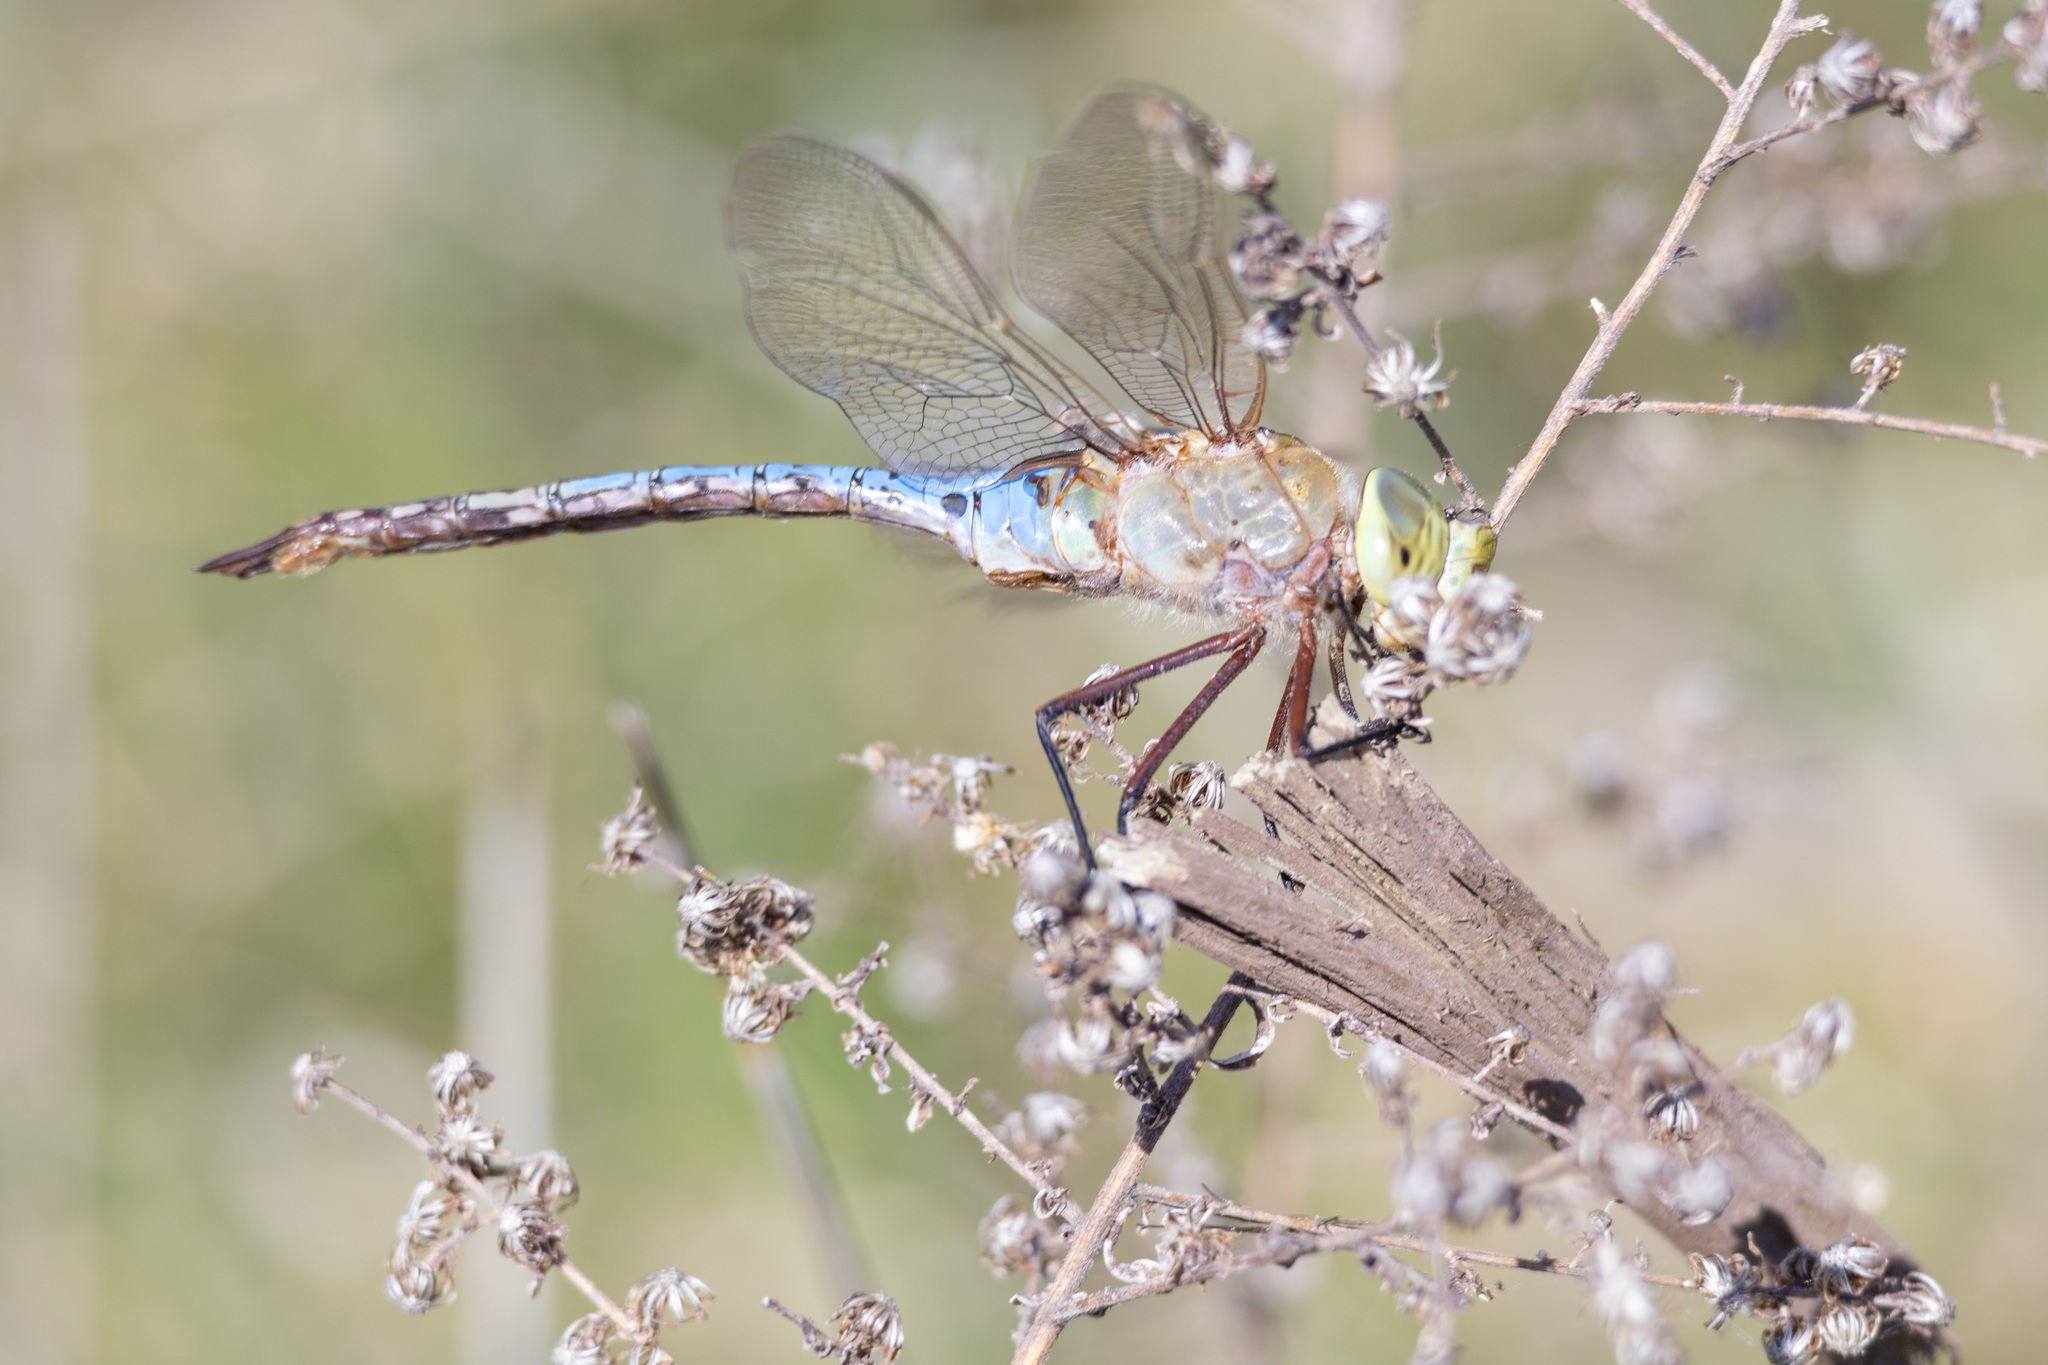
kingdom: Animalia
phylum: Arthropoda
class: Insecta
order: Odonata
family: Aeshnidae
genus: Anax
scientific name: Anax junius
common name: Common green darner
